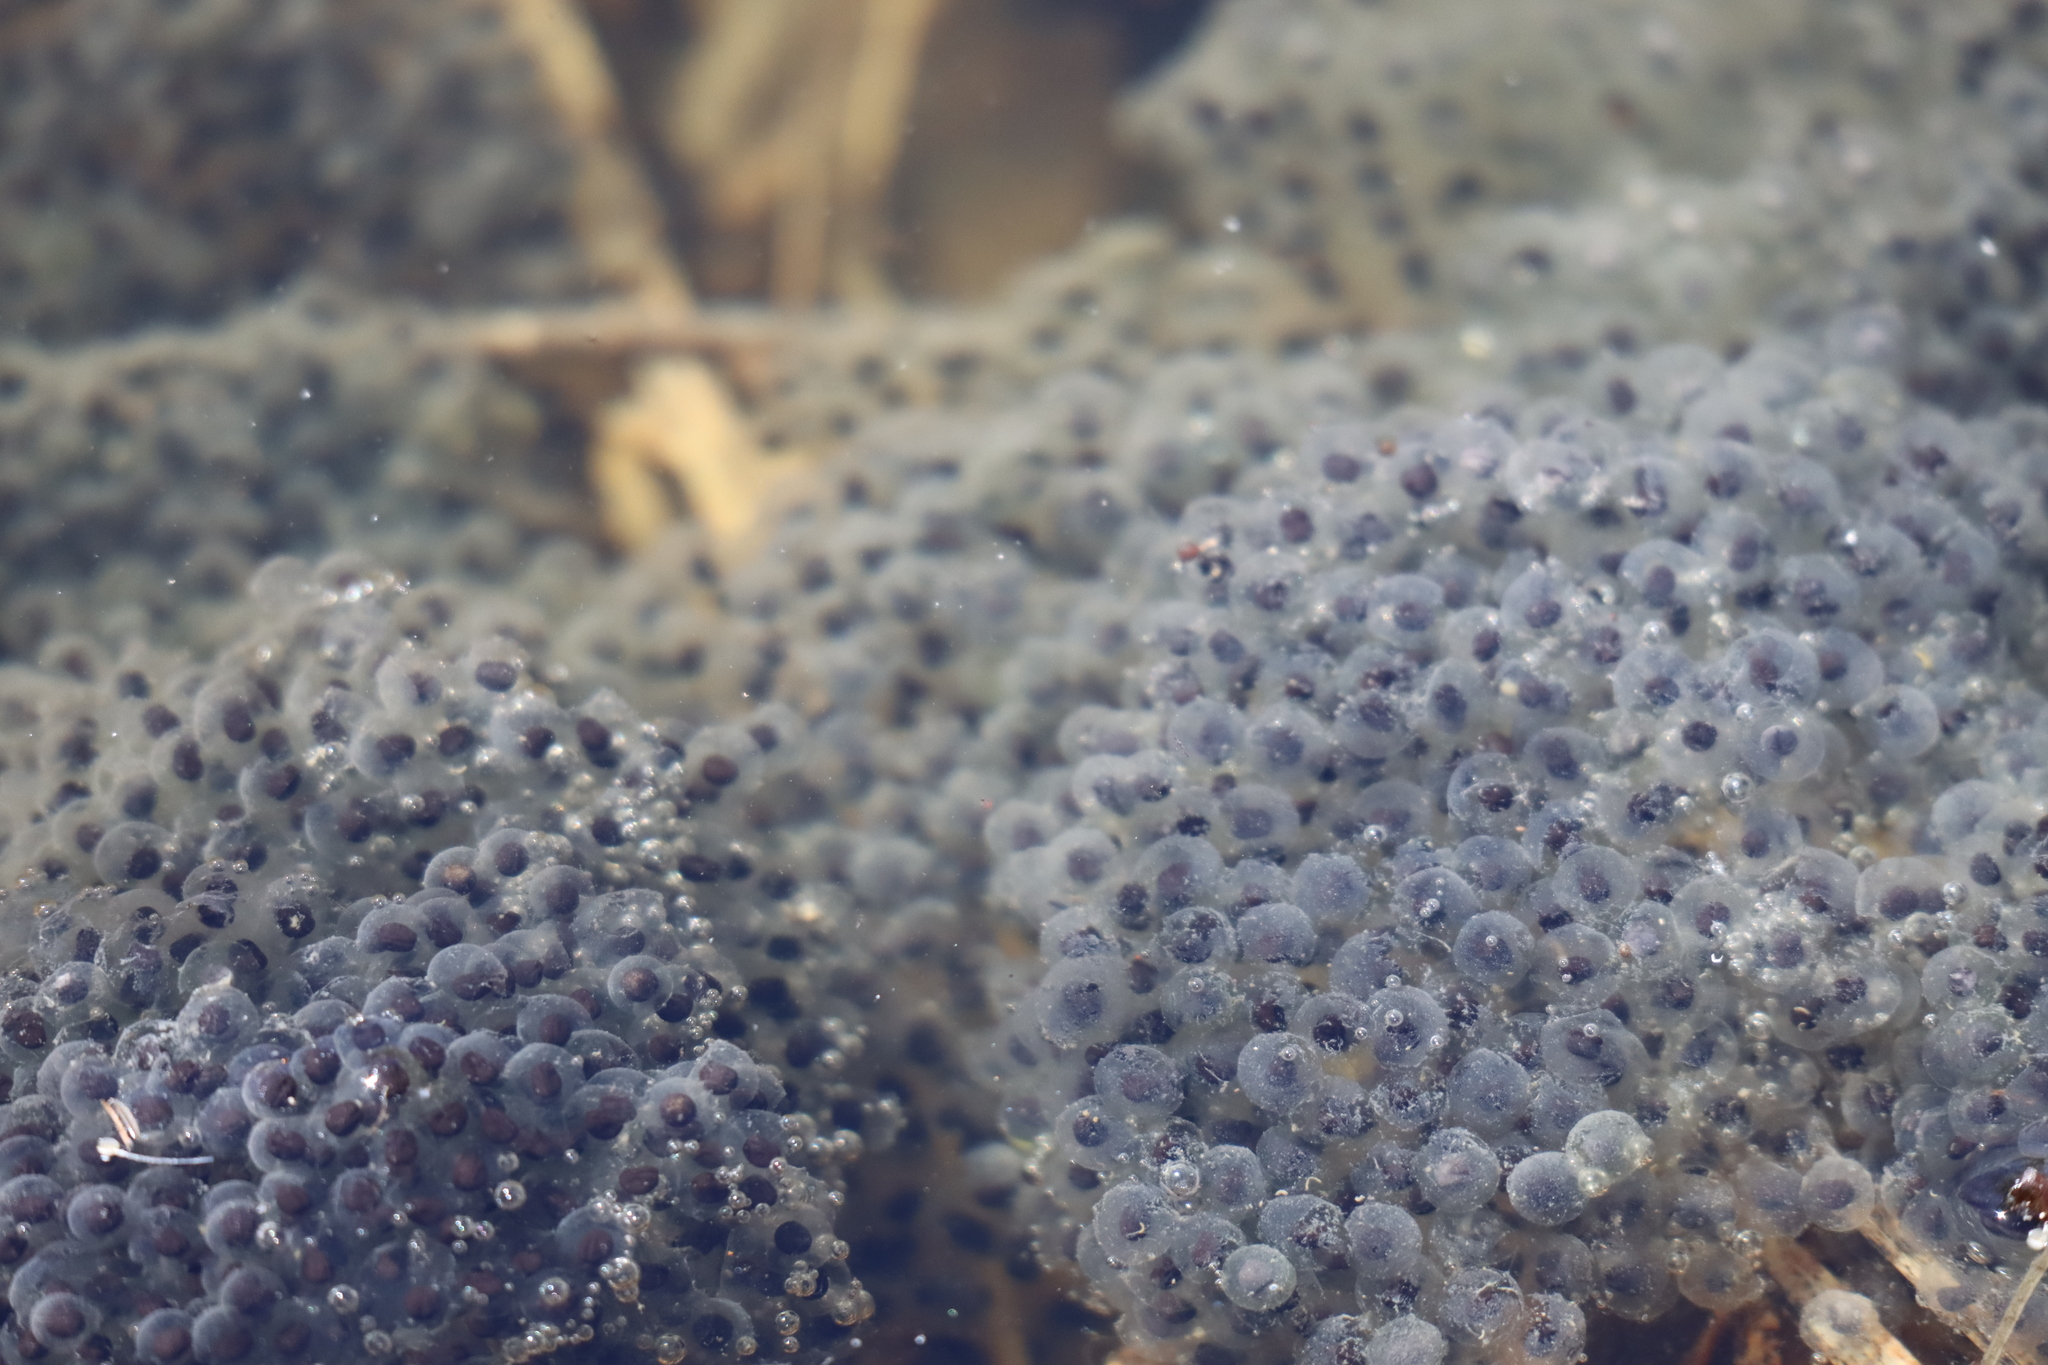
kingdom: Animalia
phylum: Chordata
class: Amphibia
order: Anura
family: Ranidae
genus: Lithobates
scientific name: Lithobates sylvaticus
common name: Wood frog
